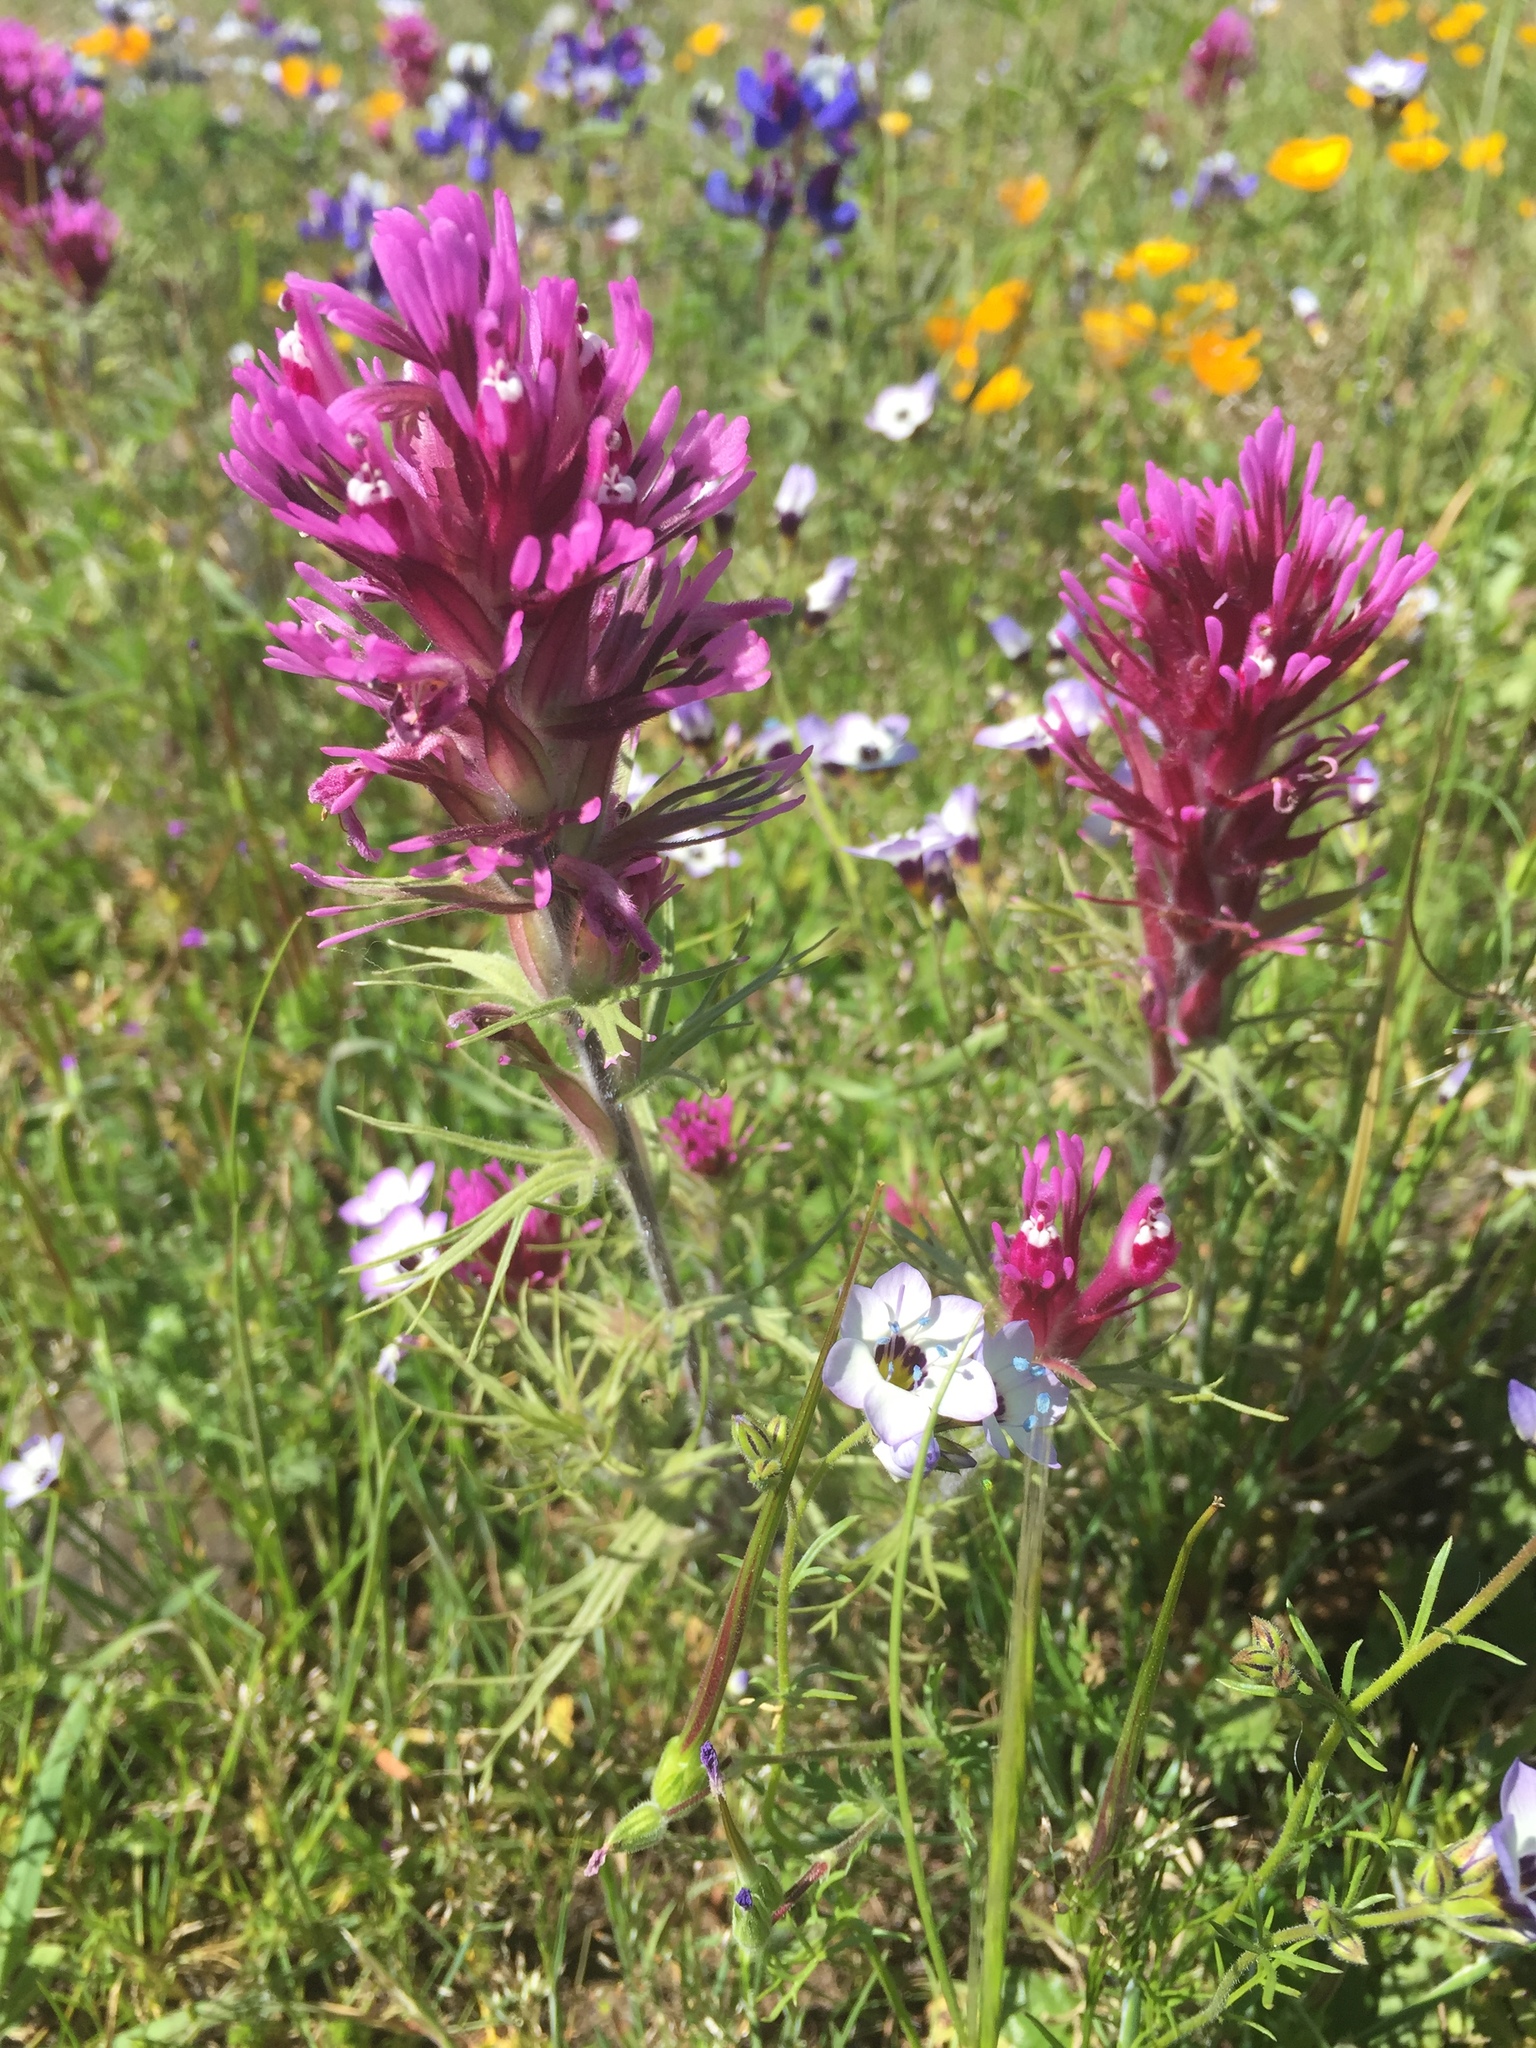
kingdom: Plantae
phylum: Tracheophyta
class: Magnoliopsida
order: Lamiales
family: Orobanchaceae
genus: Castilleja
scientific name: Castilleja exserta
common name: Purple owl-clover
